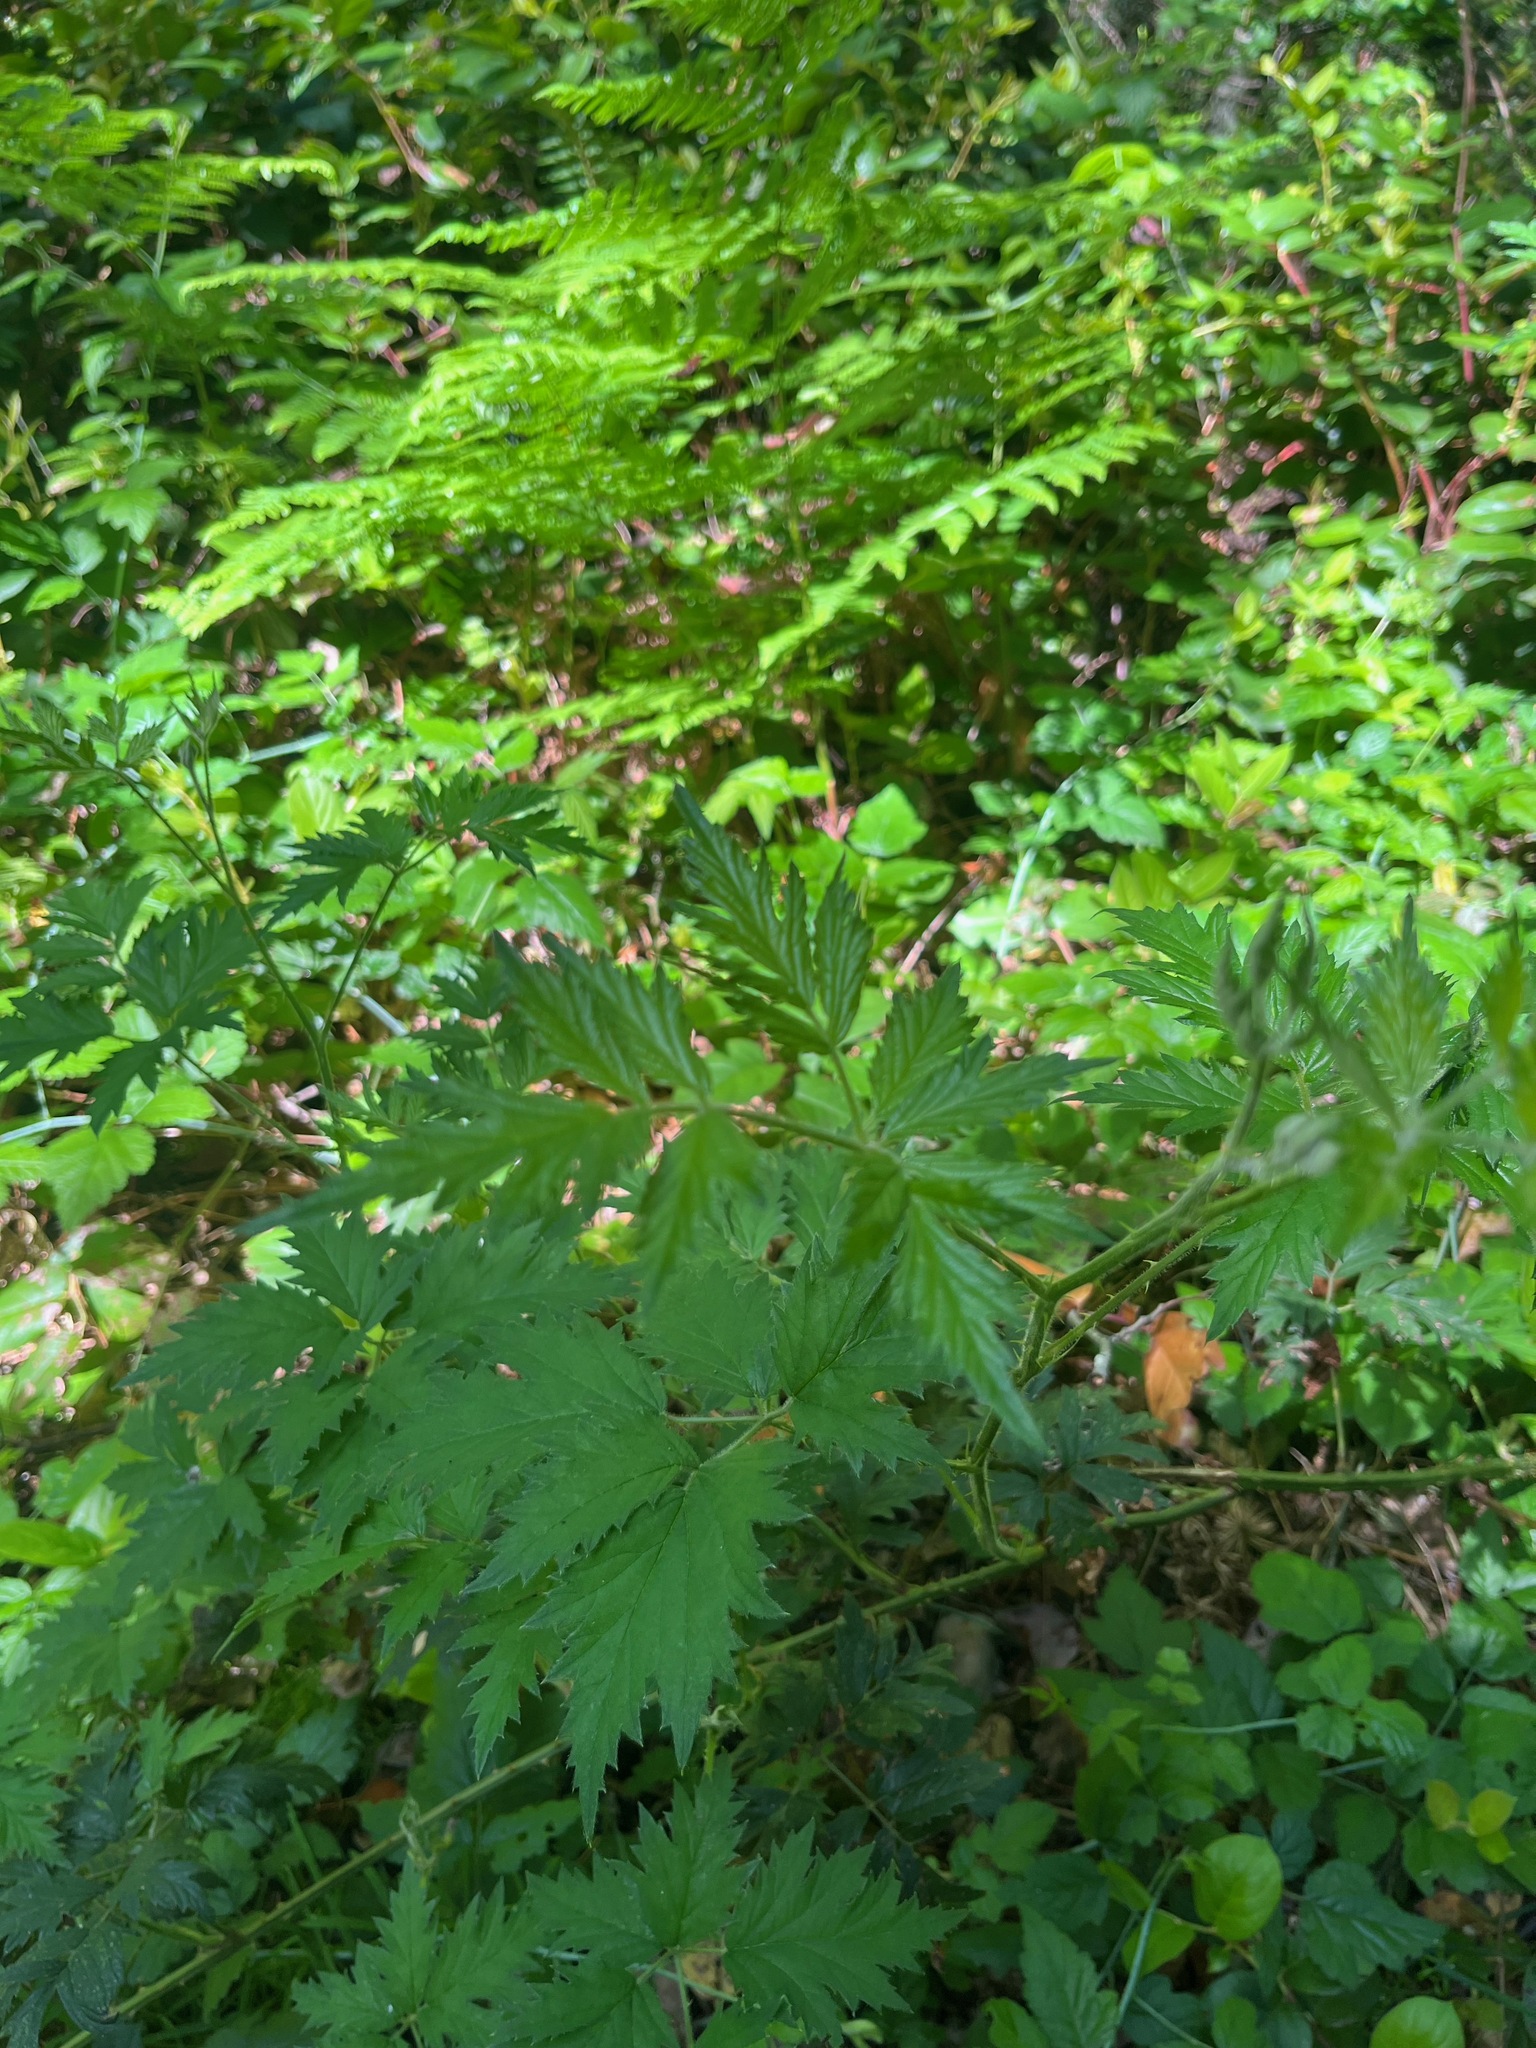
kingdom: Plantae
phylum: Tracheophyta
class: Magnoliopsida
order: Rosales
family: Rosaceae
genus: Rubus
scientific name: Rubus laciniatus
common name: Evergreen blackberry
